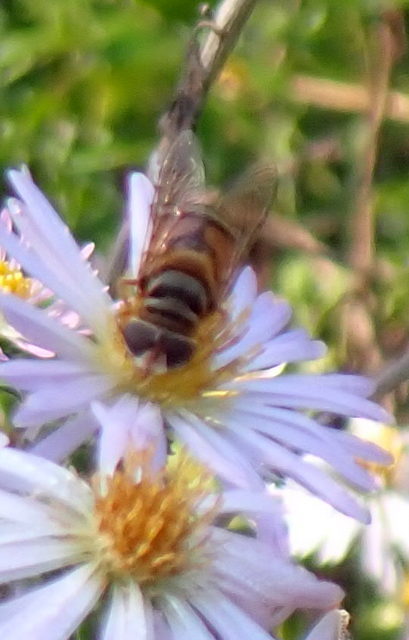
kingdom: Animalia
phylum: Arthropoda
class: Insecta
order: Diptera
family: Syrphidae
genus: Palpada
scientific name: Palpada vinetorum
